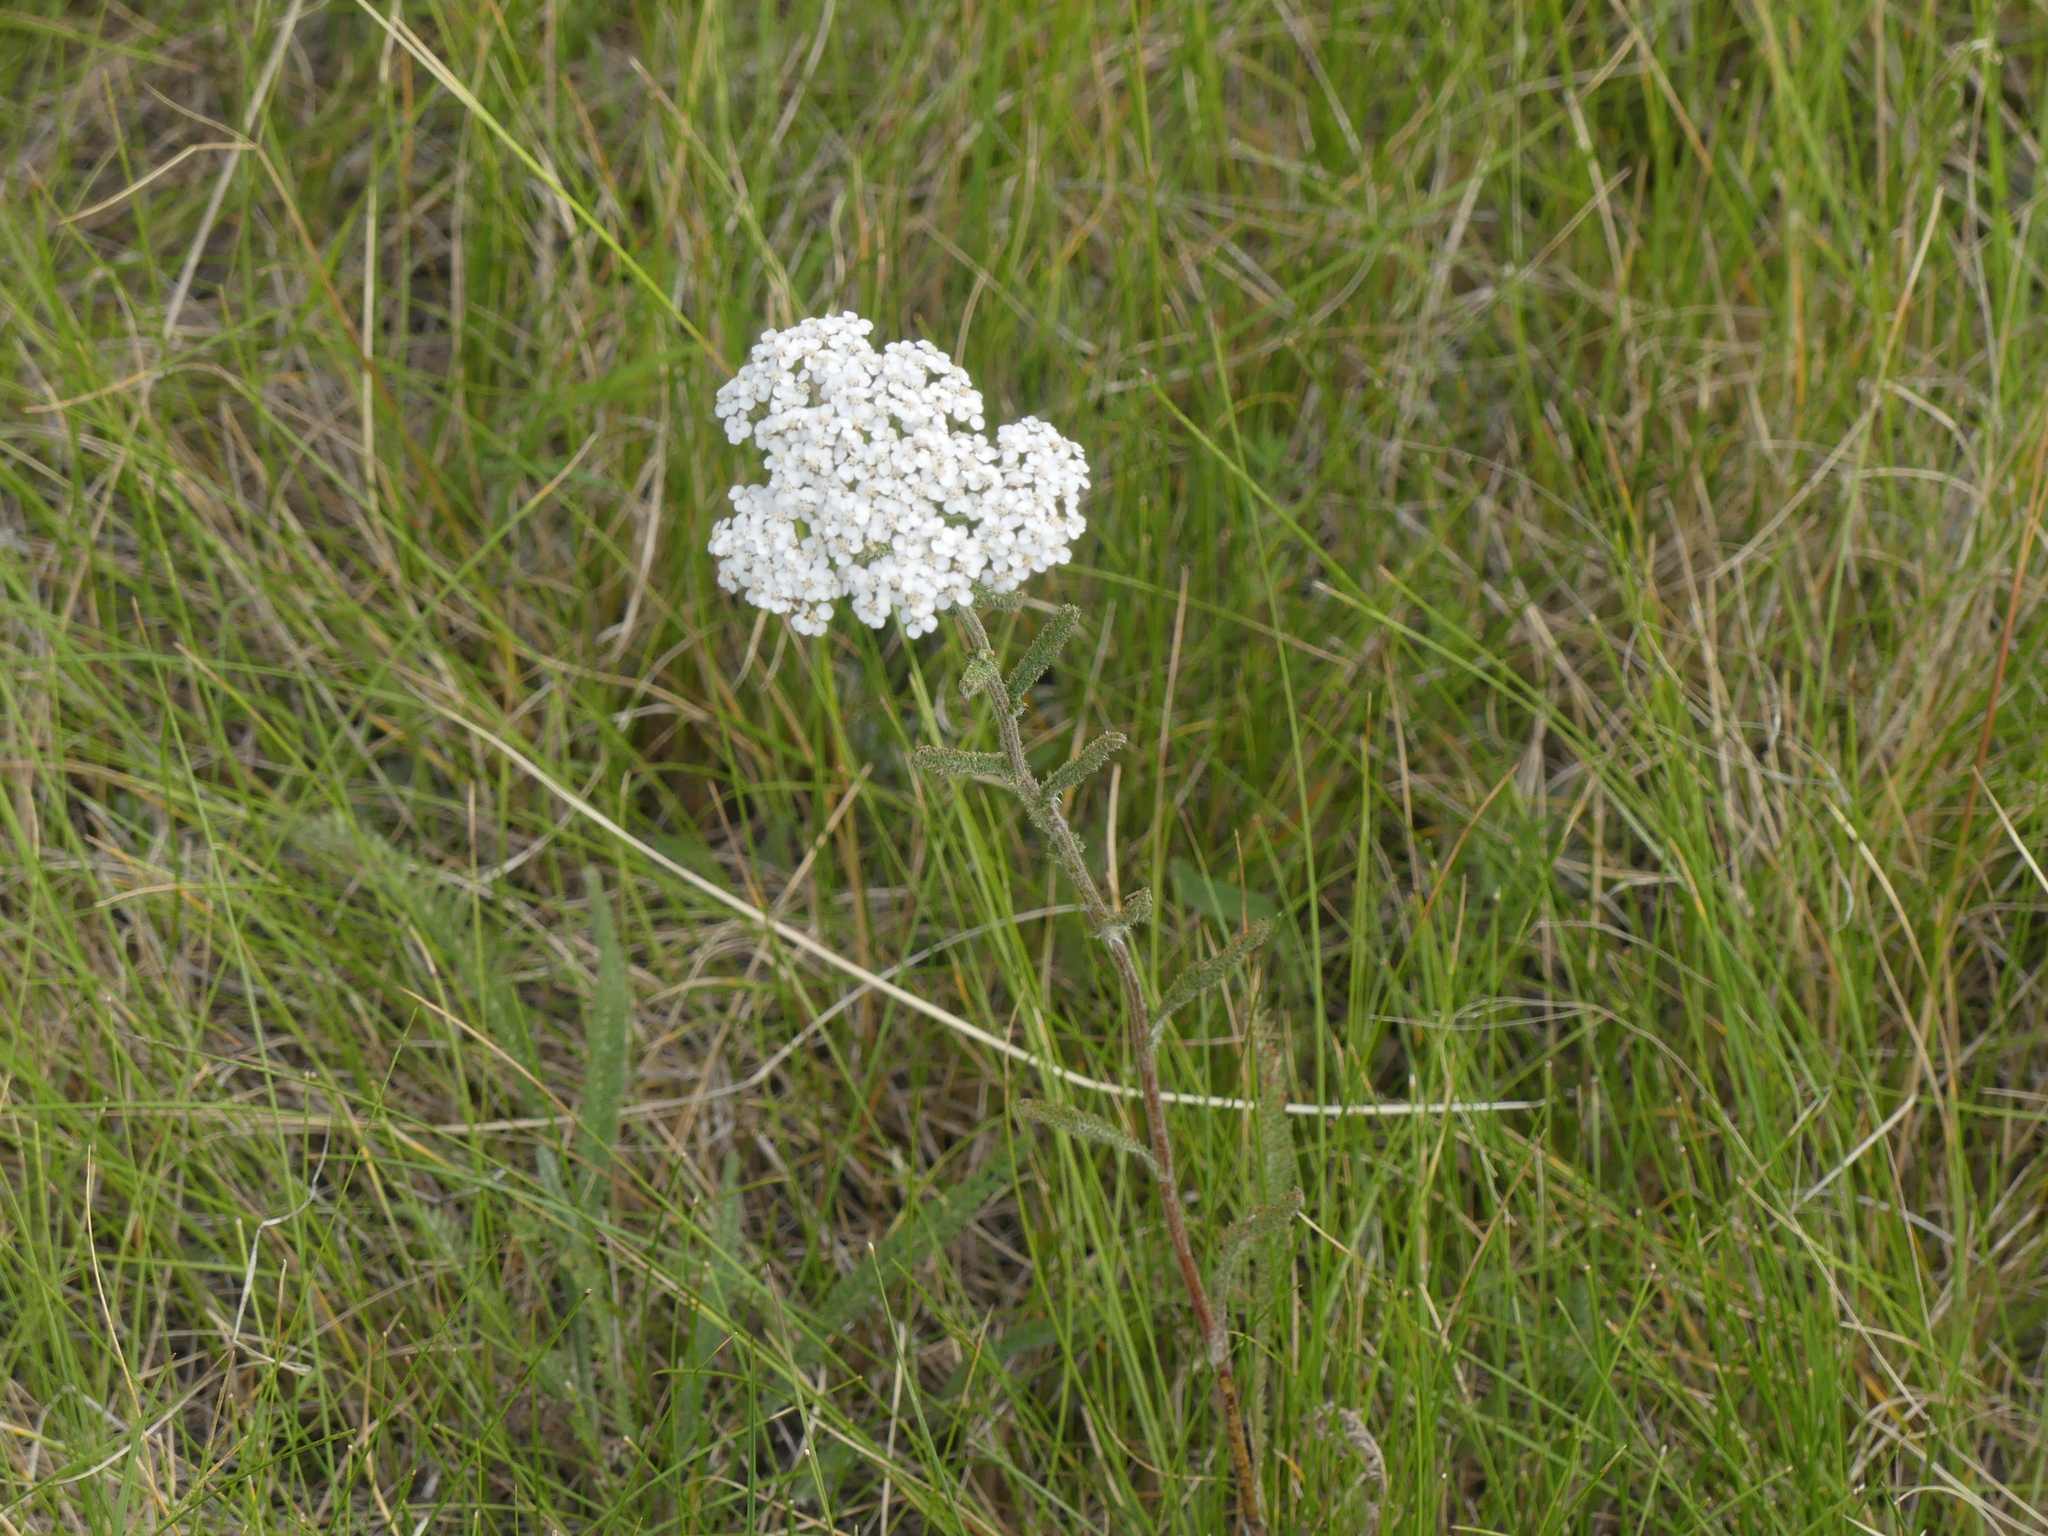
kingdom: Plantae
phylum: Tracheophyta
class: Magnoliopsida
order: Asterales
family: Asteraceae
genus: Achillea
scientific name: Achillea millefolium
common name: Yarrow
